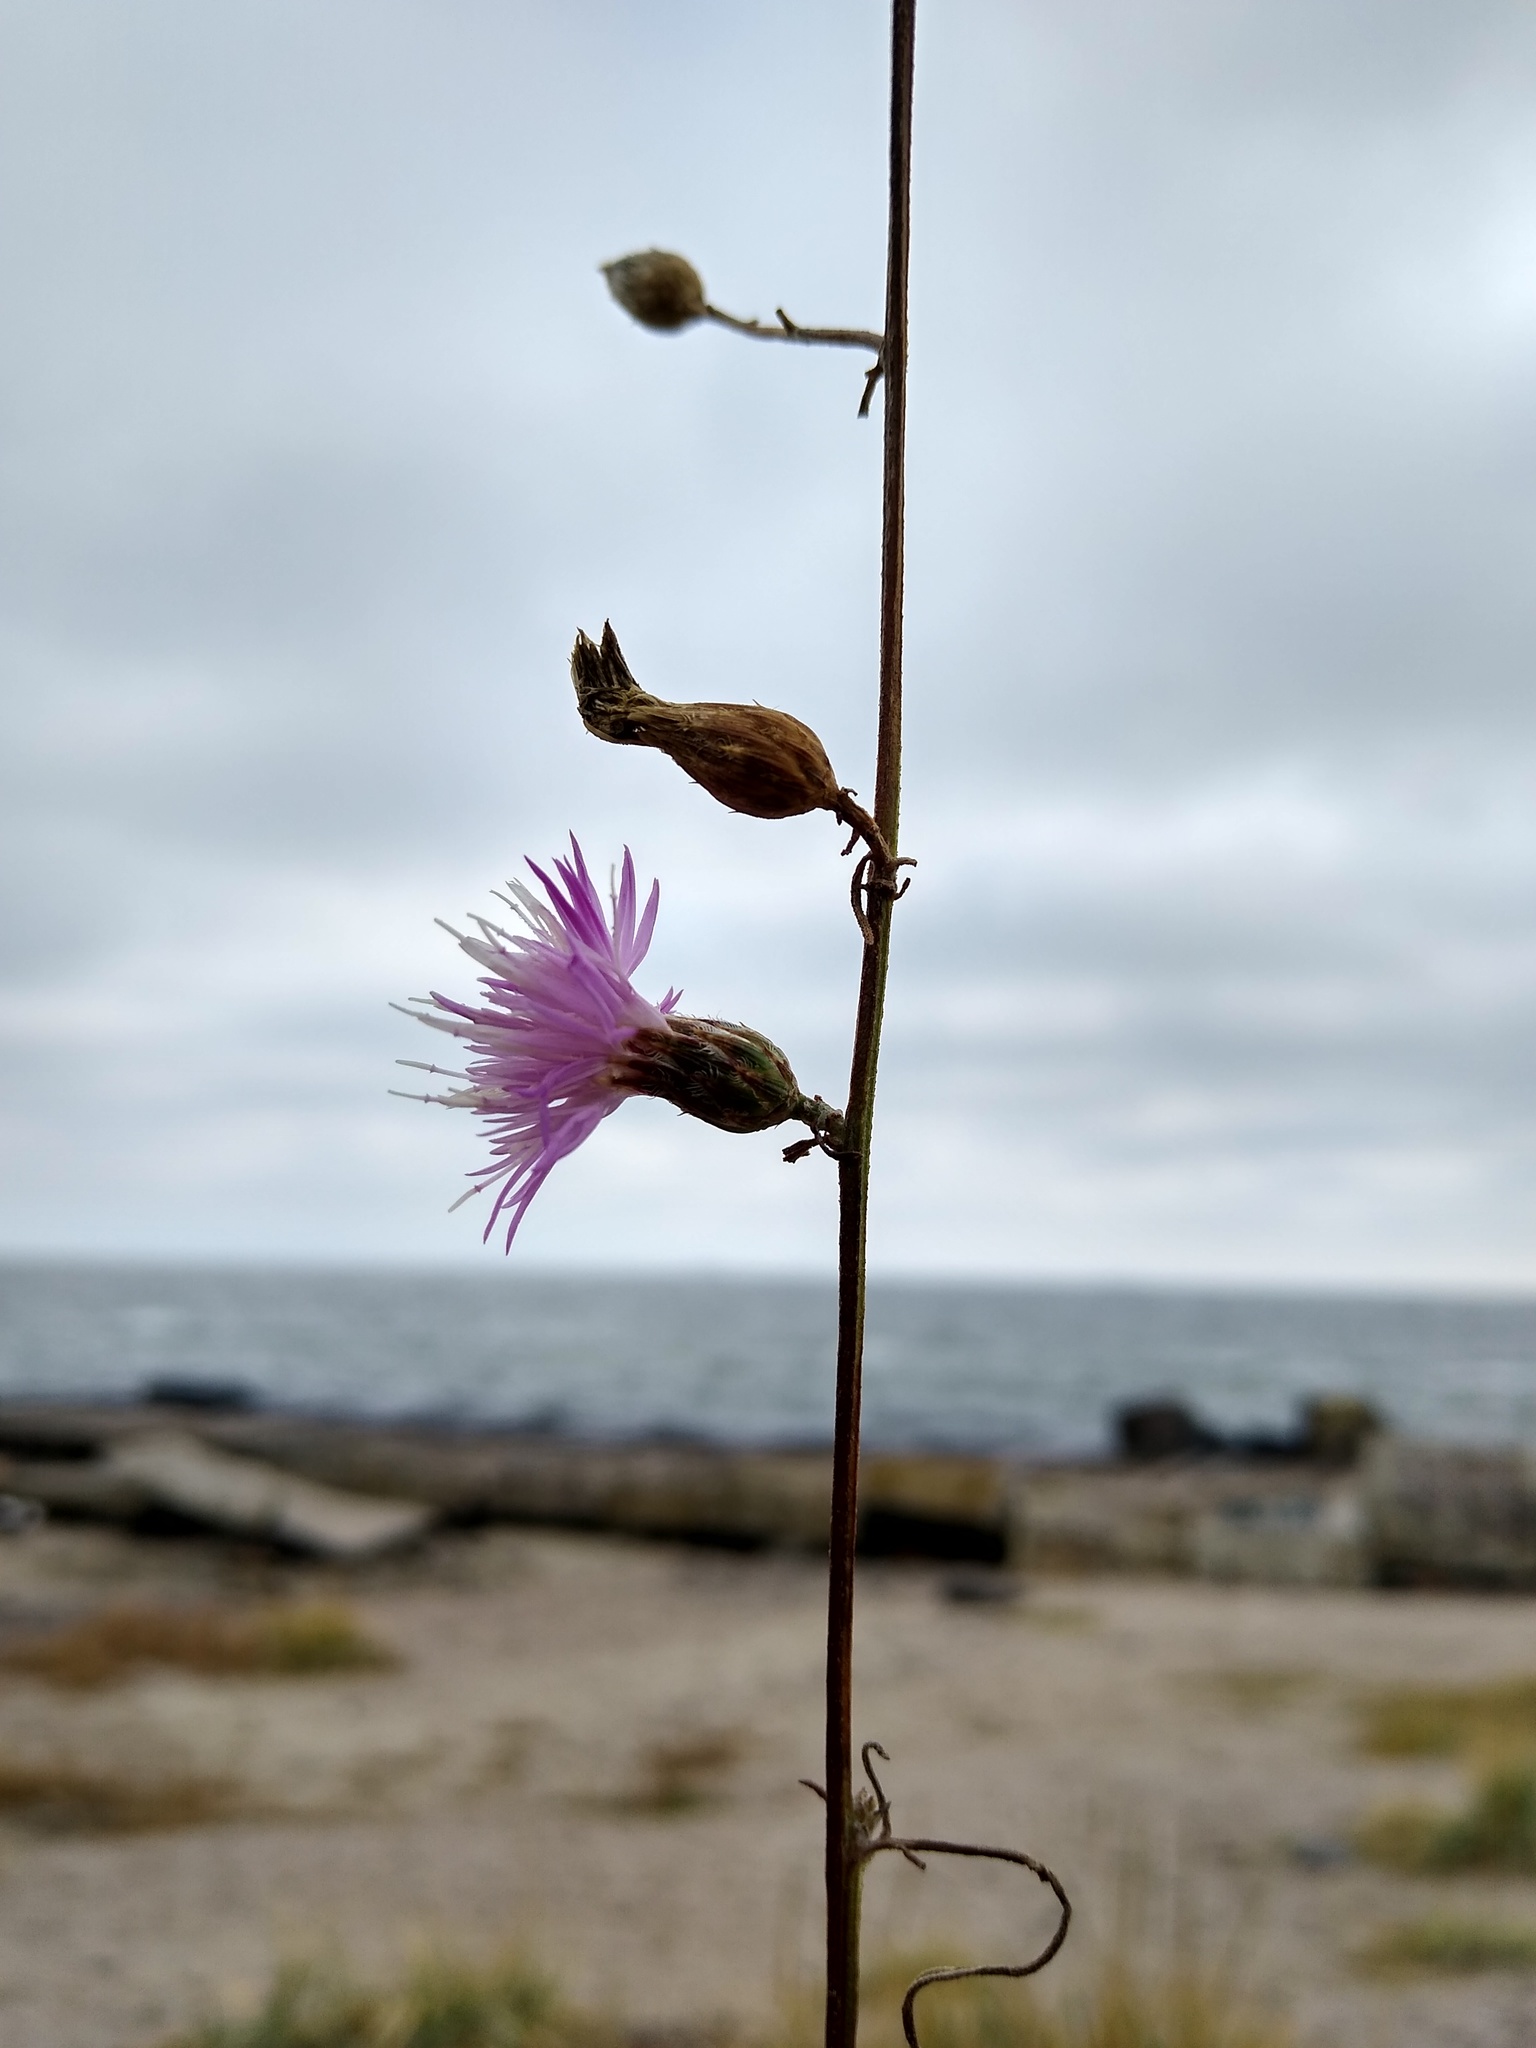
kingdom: Plantae
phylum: Tracheophyta
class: Magnoliopsida
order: Asterales
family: Asteraceae
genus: Centaurea
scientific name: Centaurea odessana
